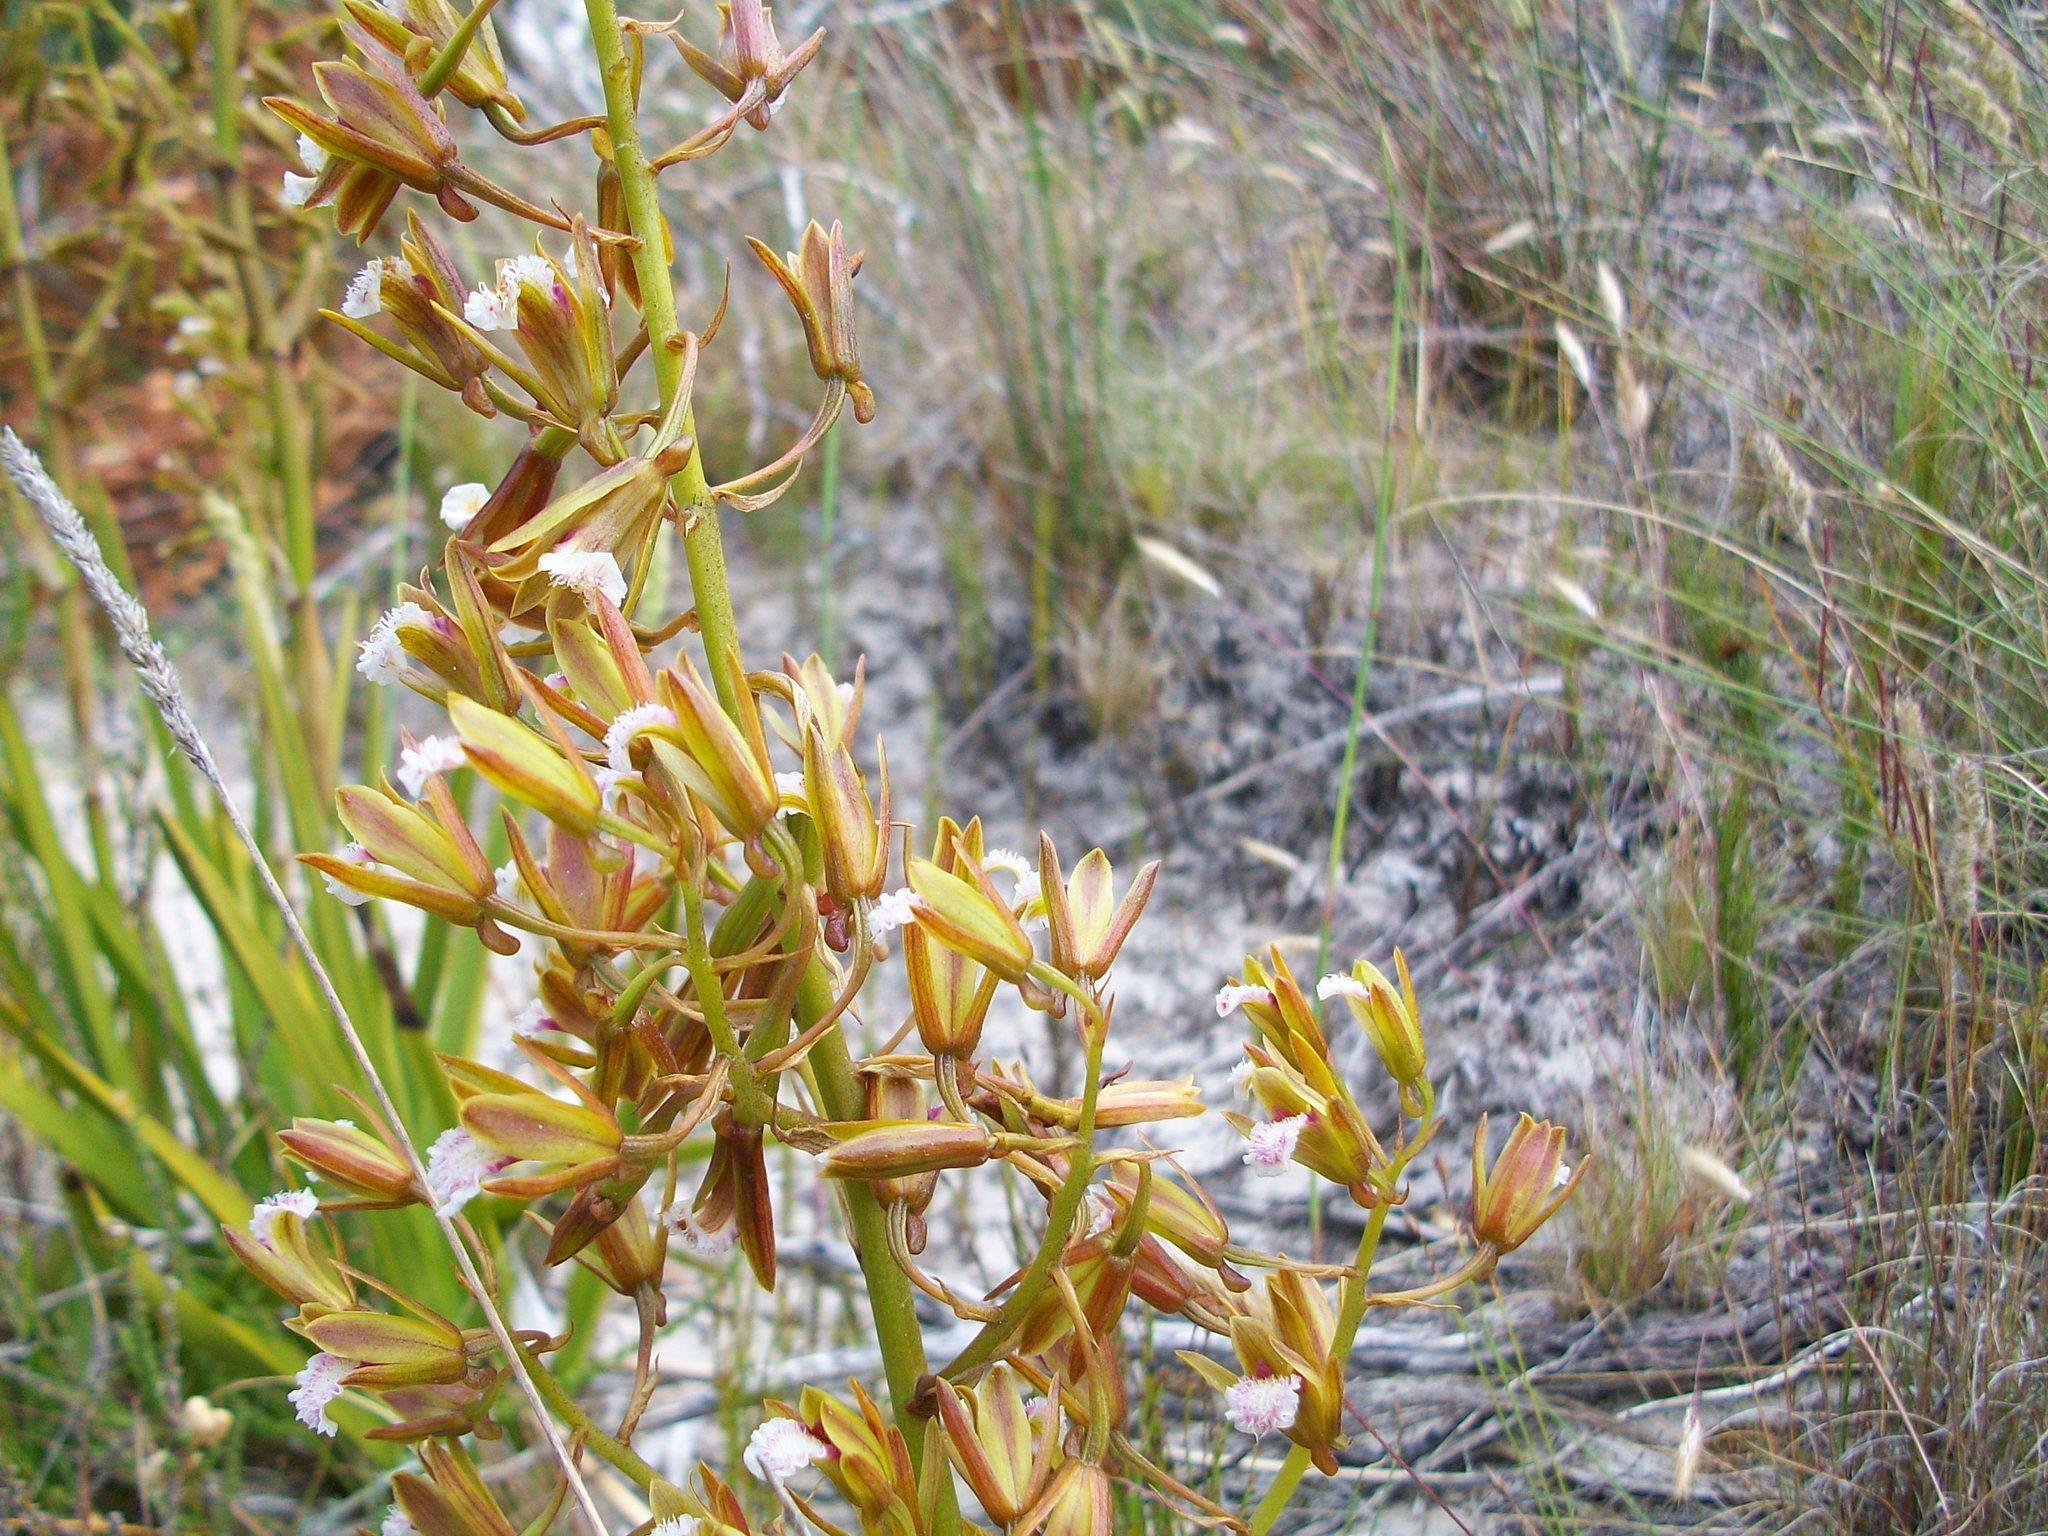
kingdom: Plantae
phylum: Tracheophyta
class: Liliopsida
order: Asparagales
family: Orchidaceae
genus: Eulophia
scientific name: Eulophia lamellata
